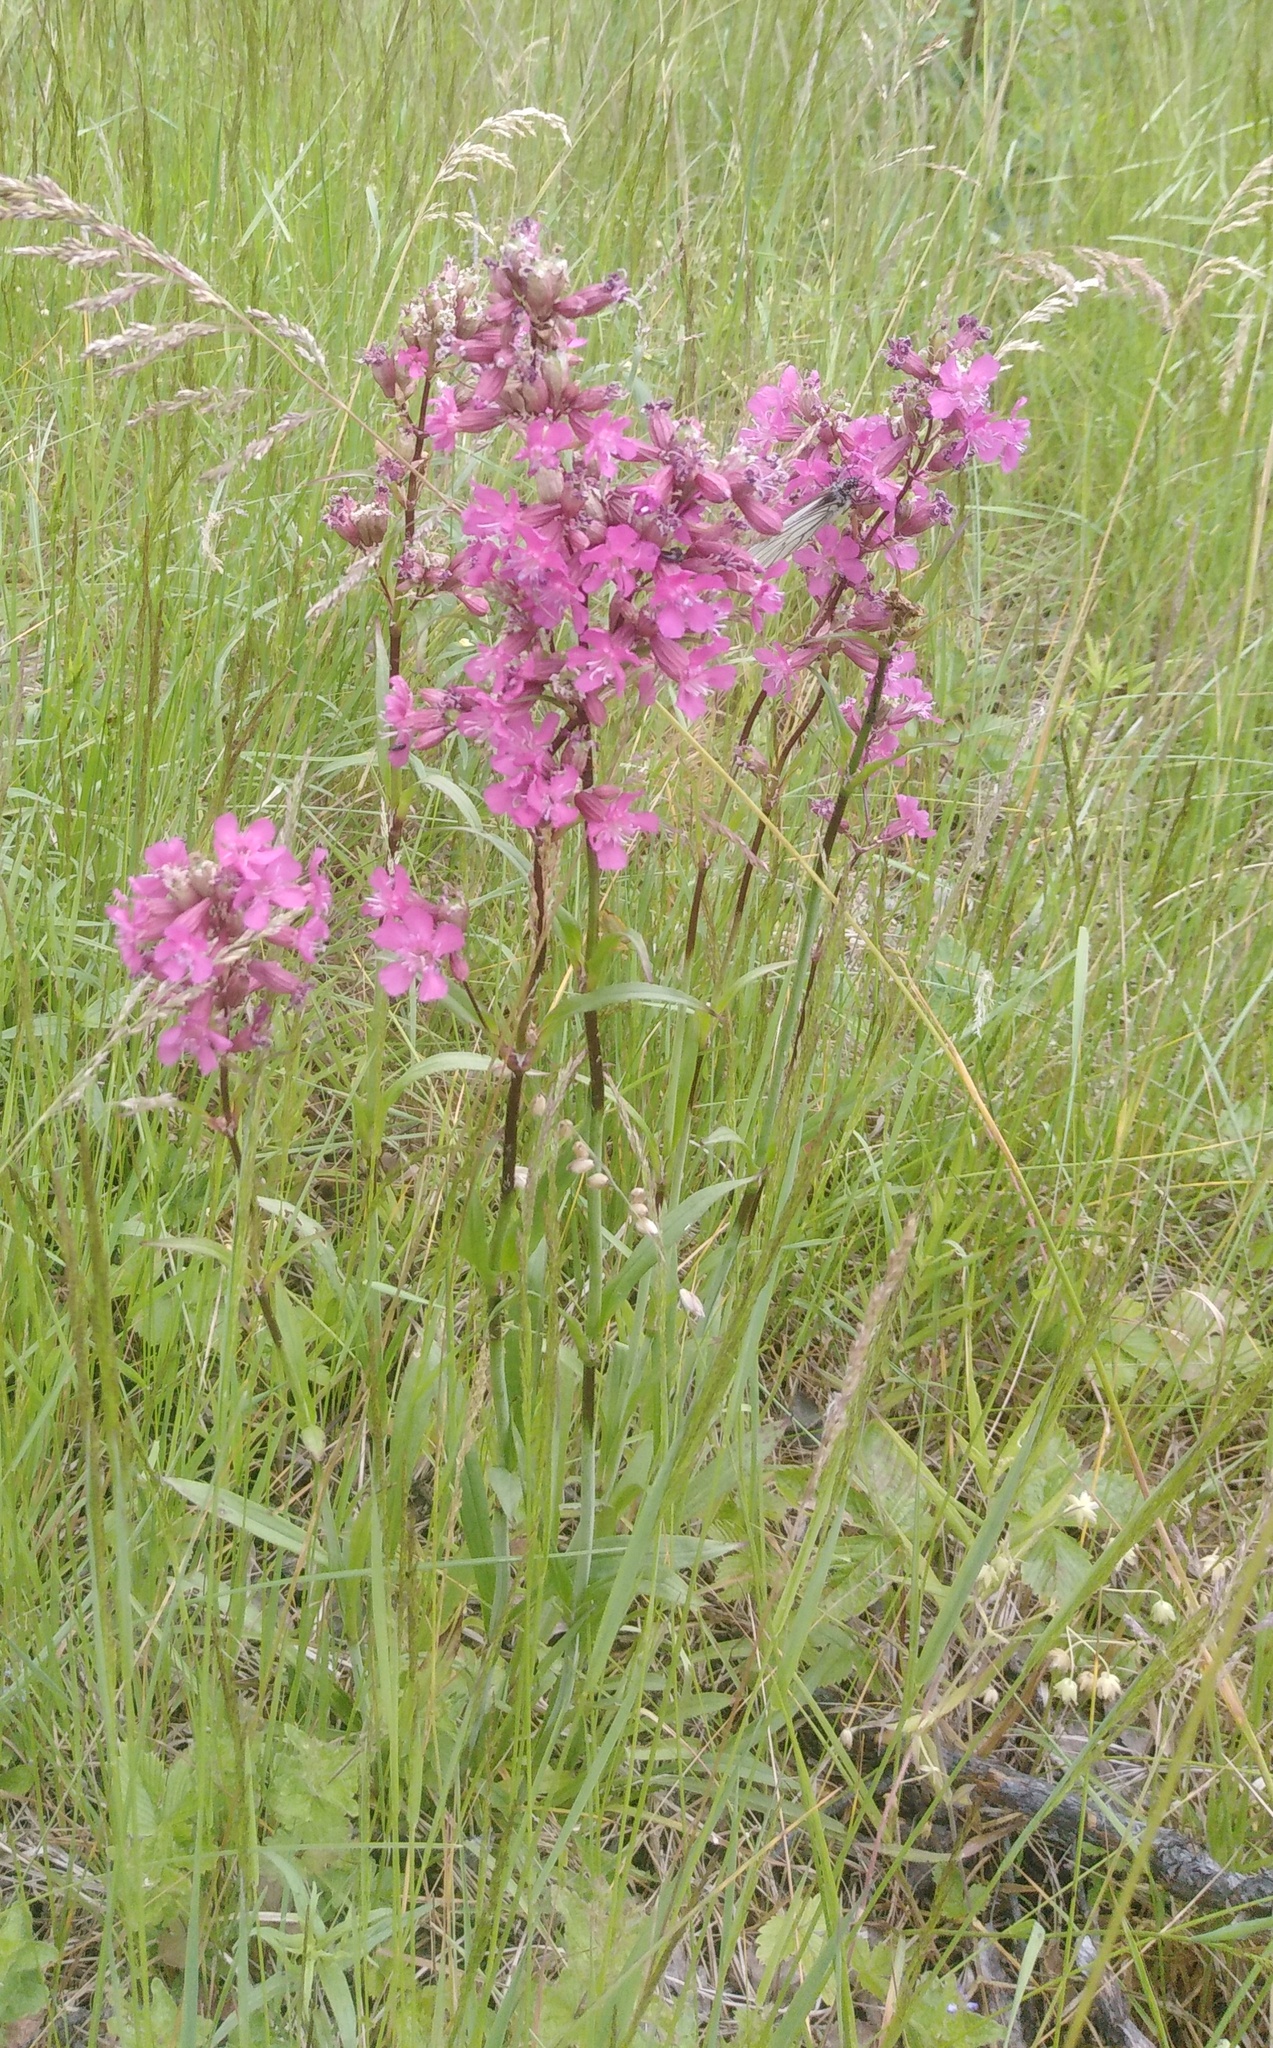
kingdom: Plantae
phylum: Tracheophyta
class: Magnoliopsida
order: Caryophyllales
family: Caryophyllaceae
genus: Viscaria
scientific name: Viscaria vulgaris
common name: Clammy campion
